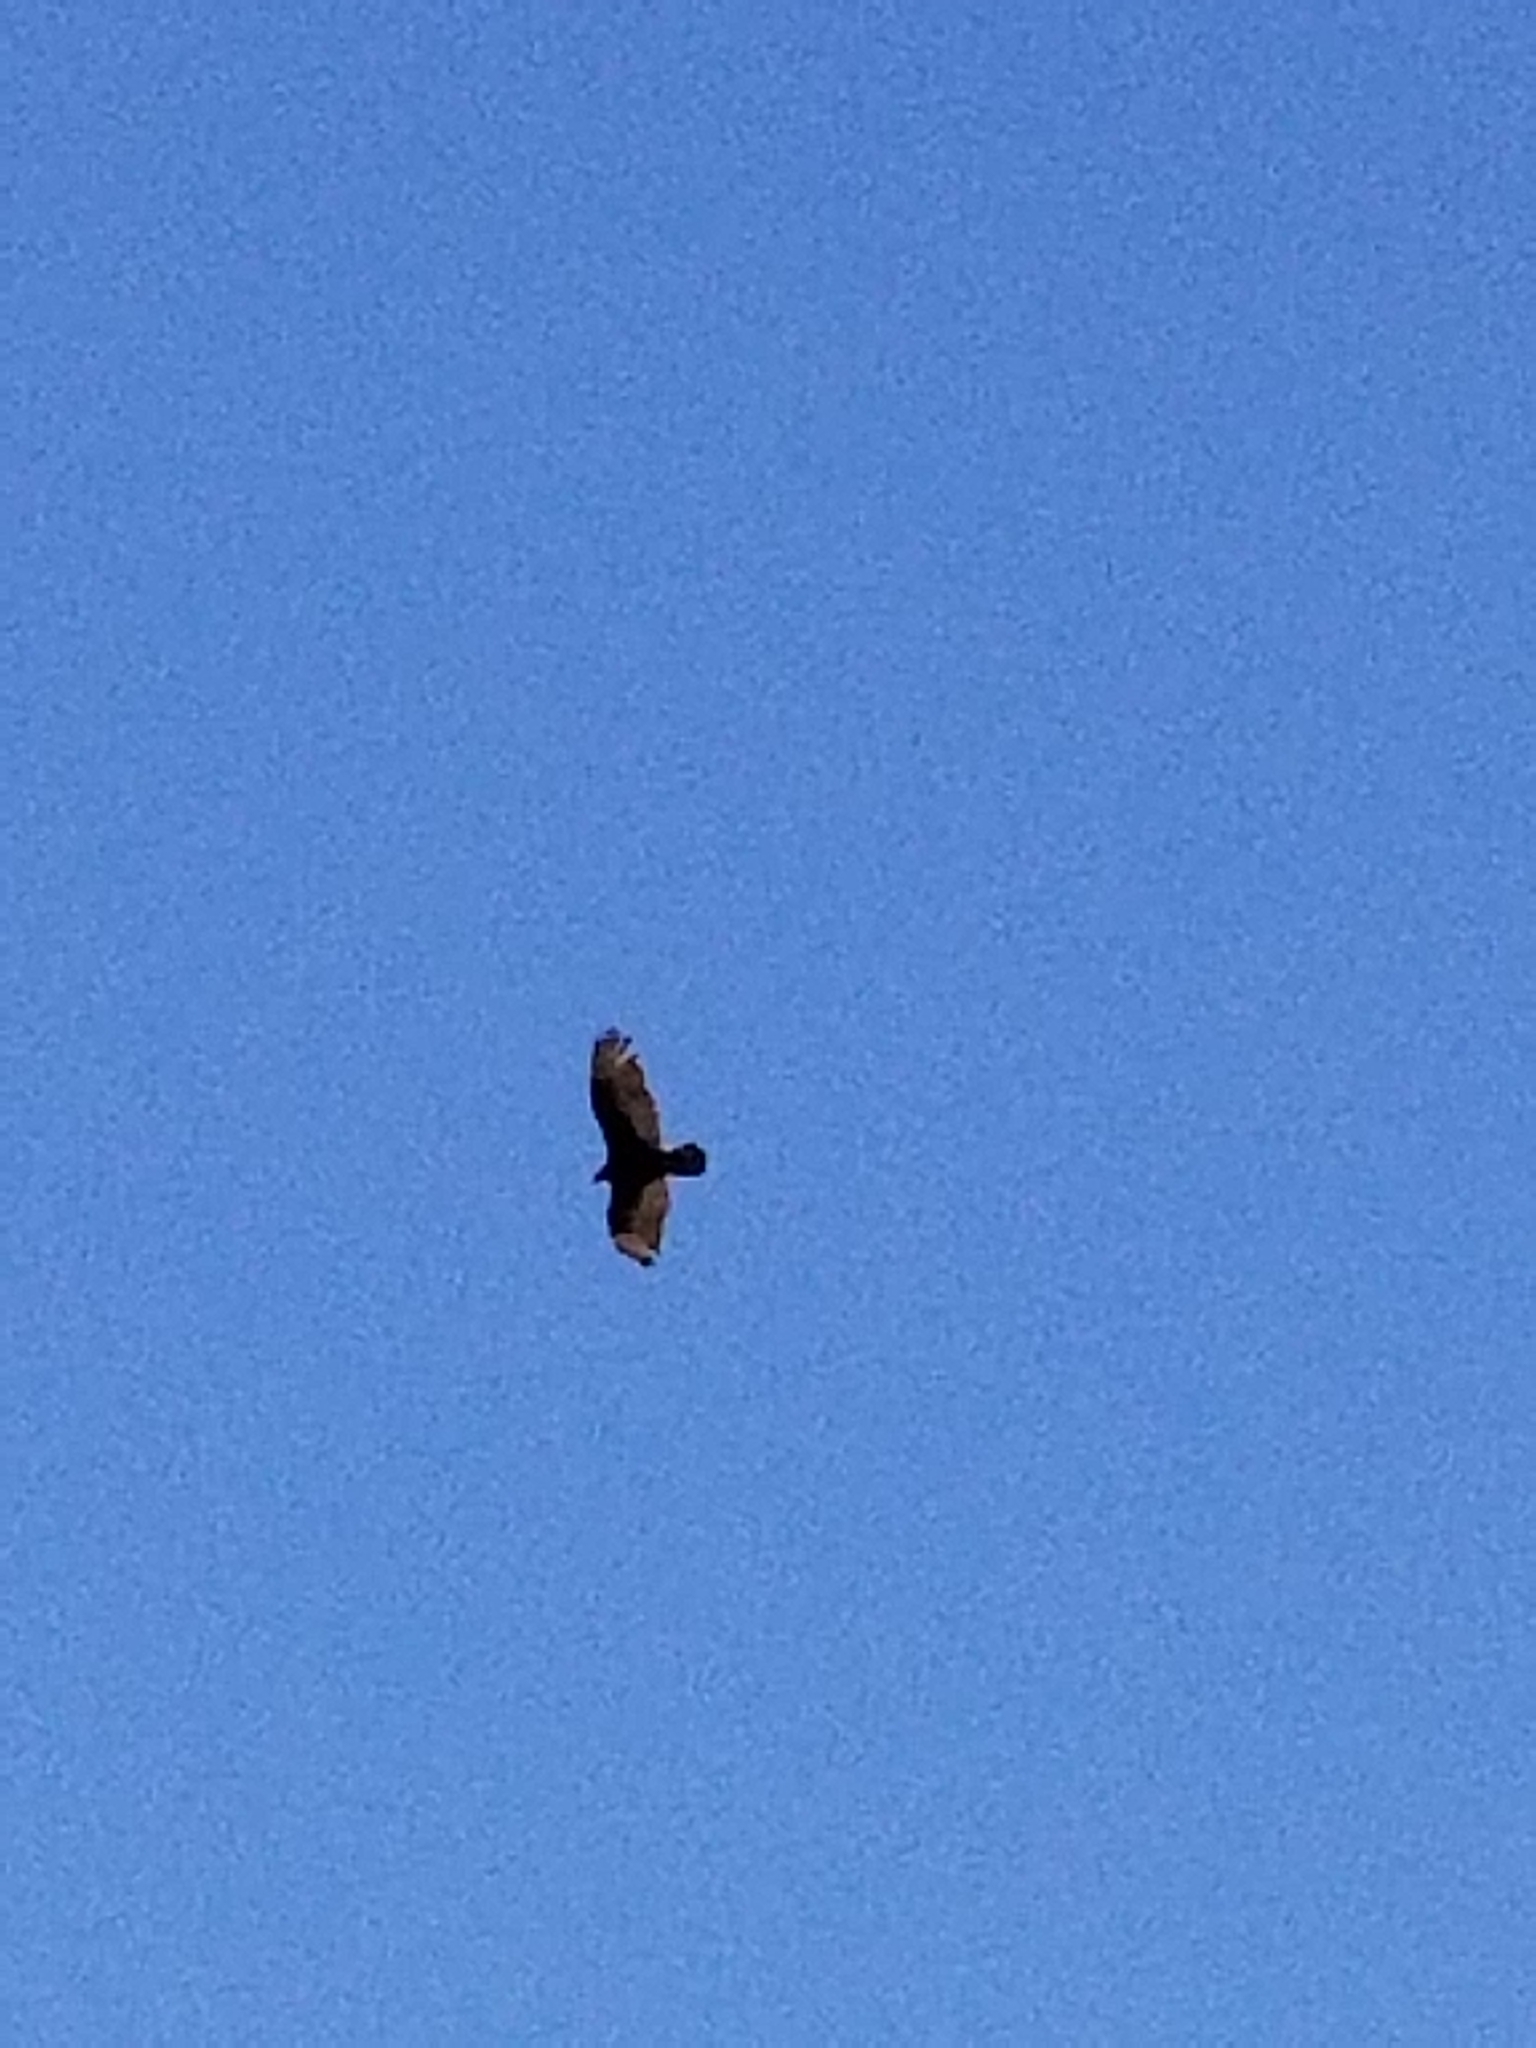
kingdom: Animalia
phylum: Chordata
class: Aves
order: Accipitriformes
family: Cathartidae
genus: Cathartes
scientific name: Cathartes aura
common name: Turkey vulture
